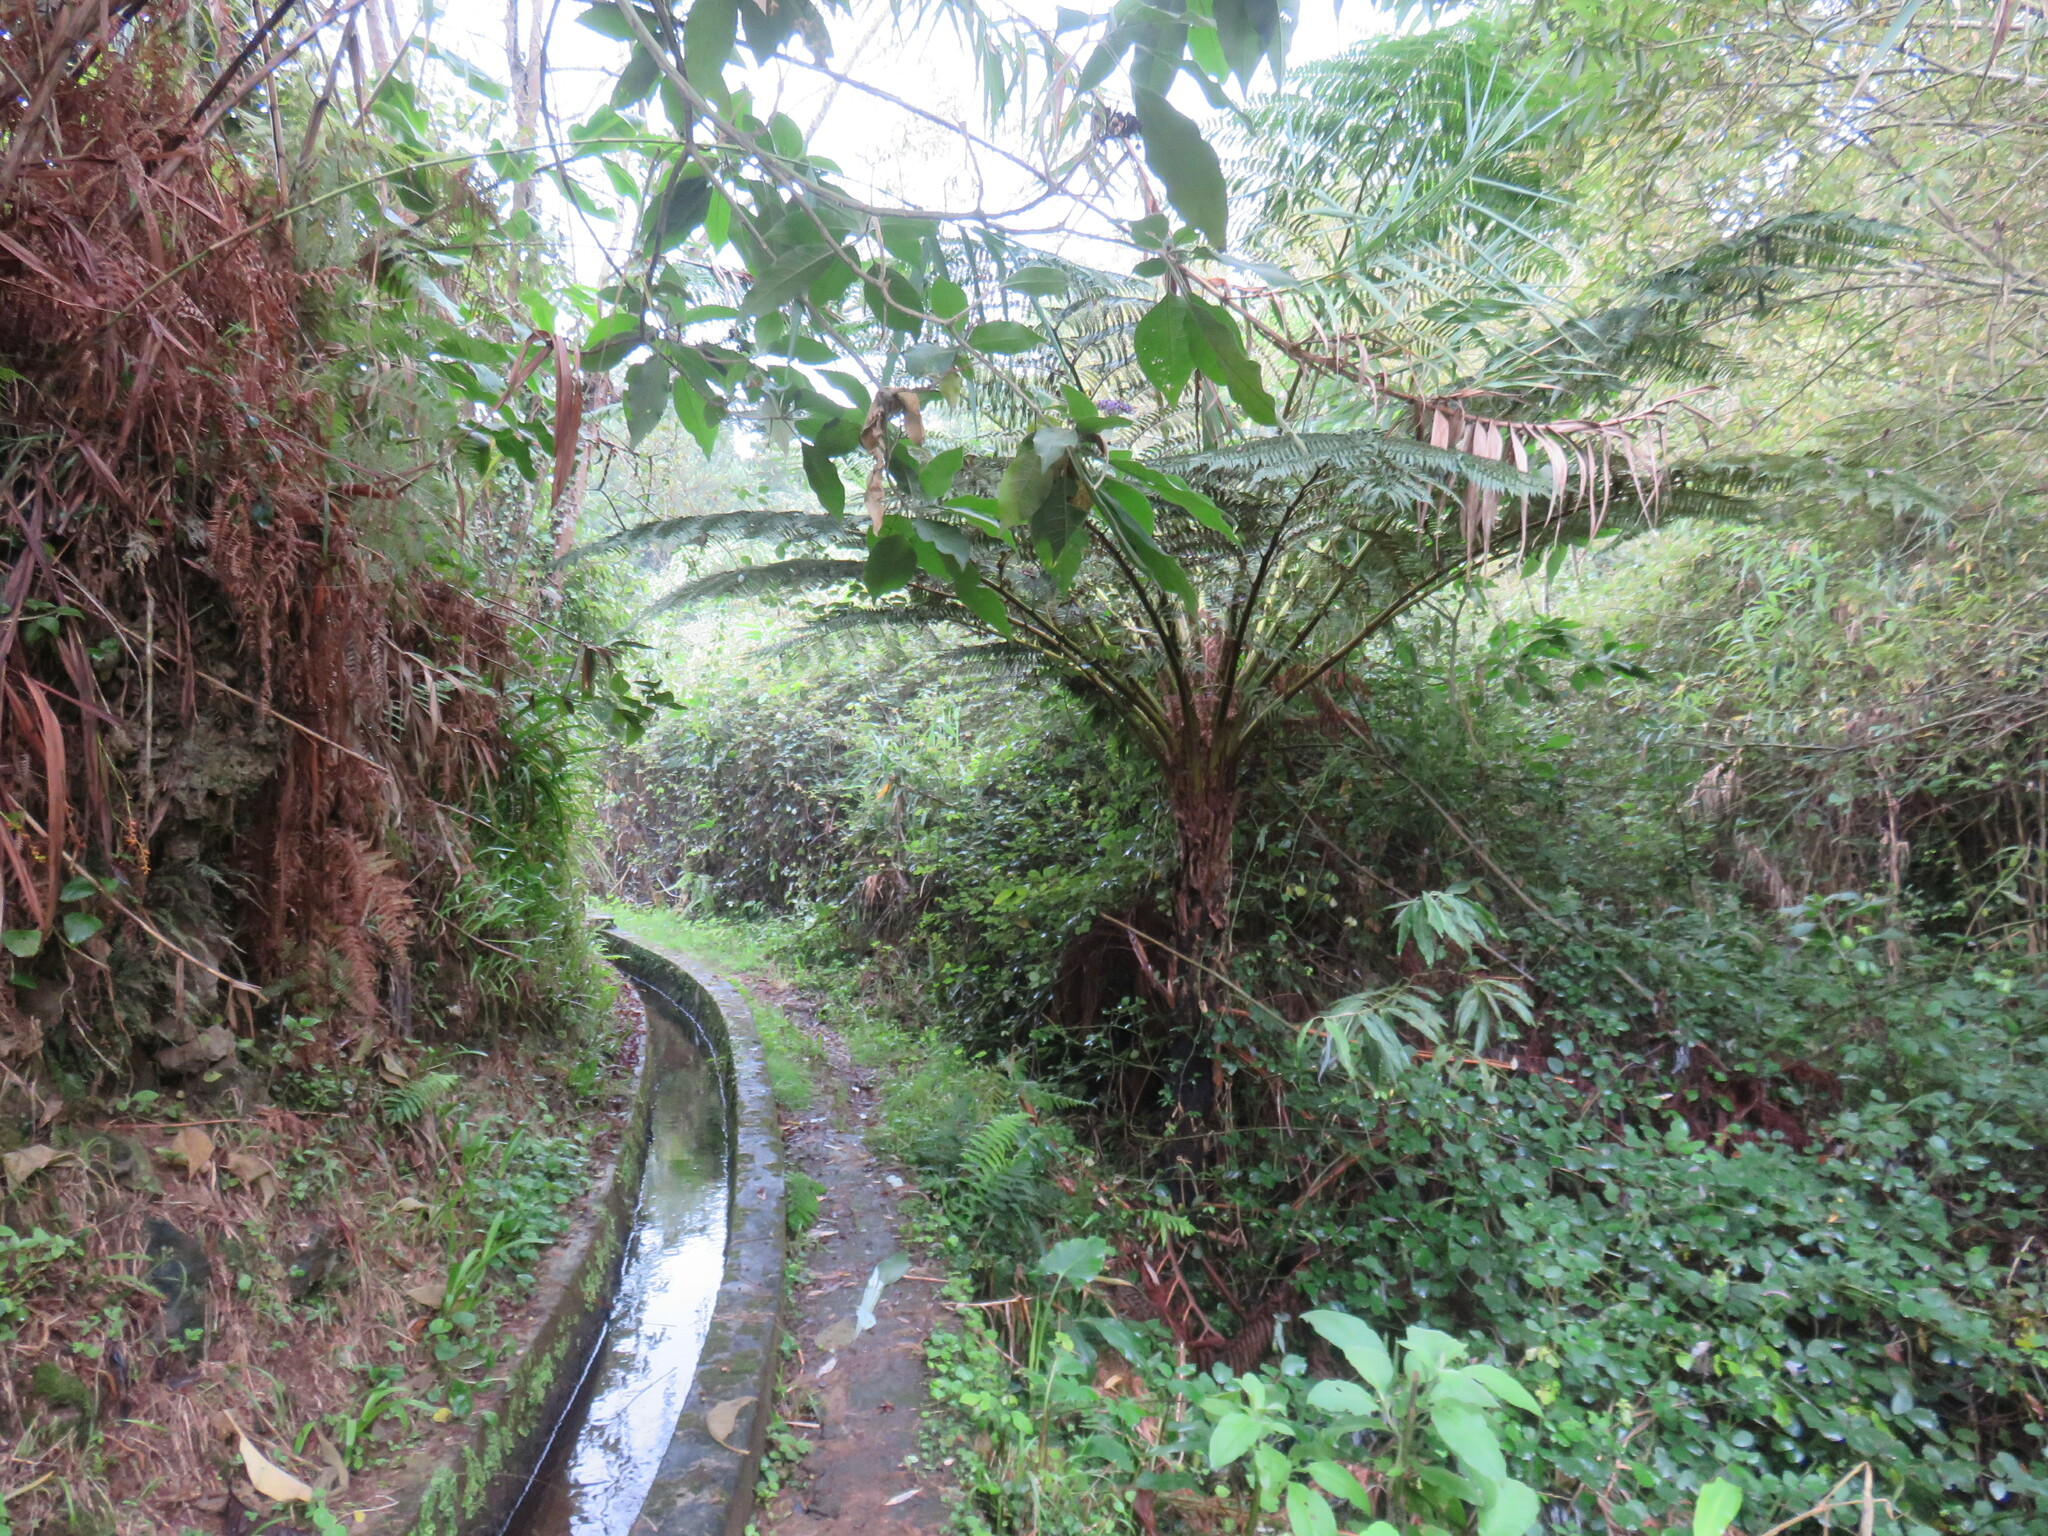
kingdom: Plantae
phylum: Tracheophyta
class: Polypodiopsida
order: Cyatheales
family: Cyatheaceae
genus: Sphaeropteris
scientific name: Sphaeropteris cooperi
